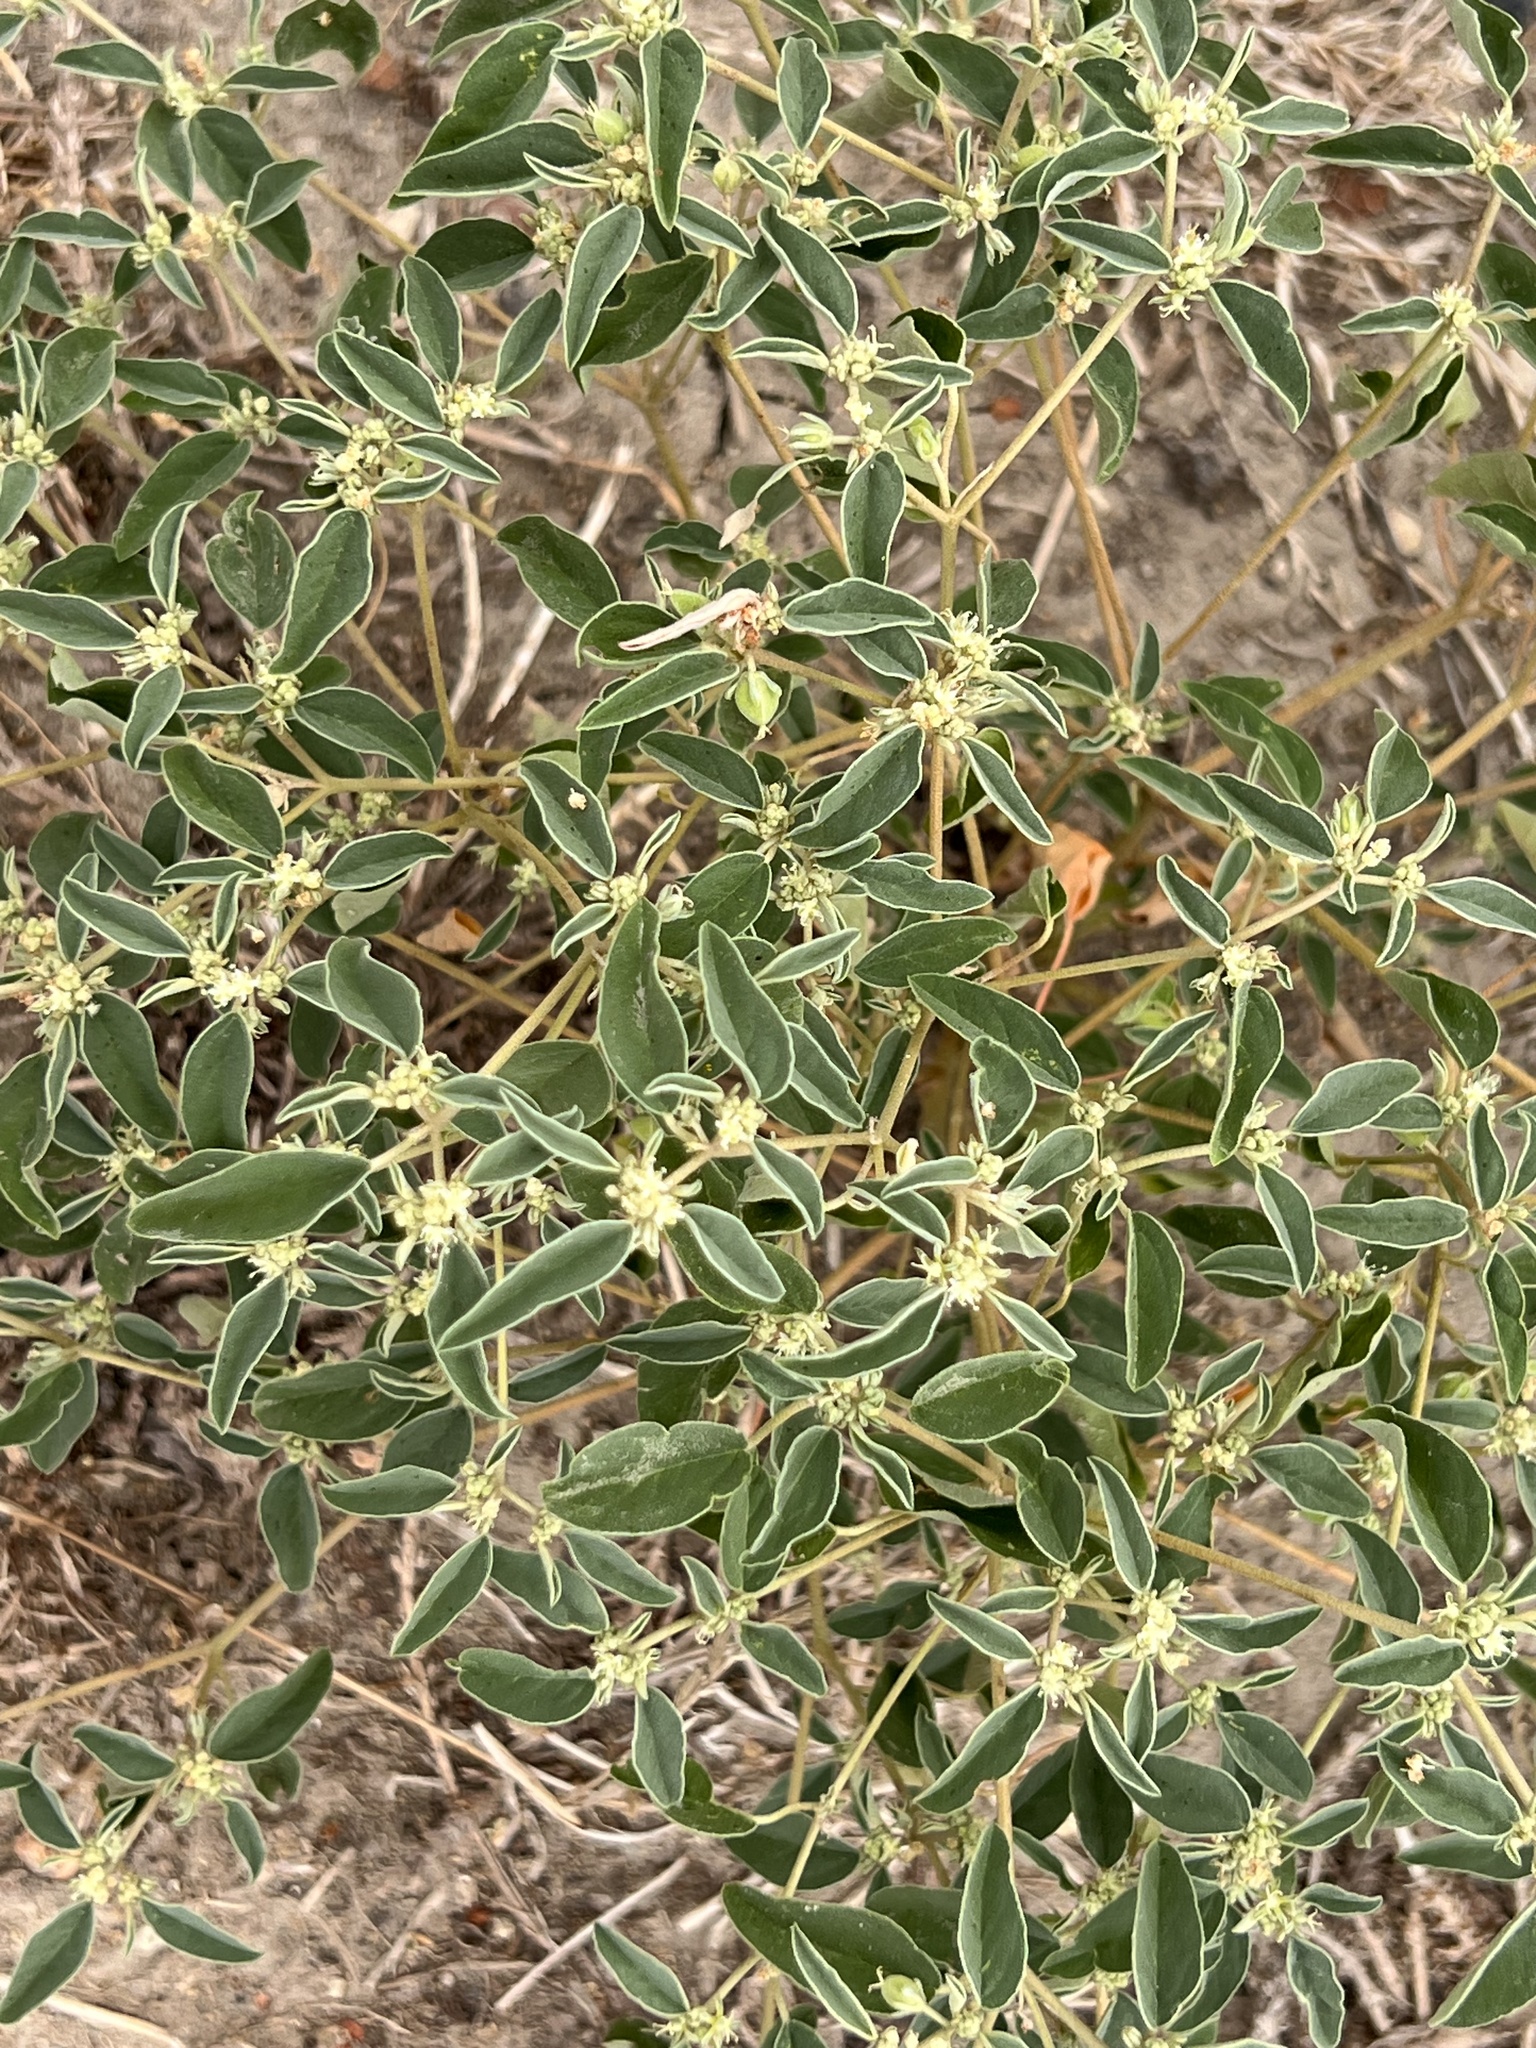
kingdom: Plantae
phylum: Tracheophyta
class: Magnoliopsida
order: Malpighiales
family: Euphorbiaceae
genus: Croton
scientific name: Croton monanthogynus
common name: One-seed croton
